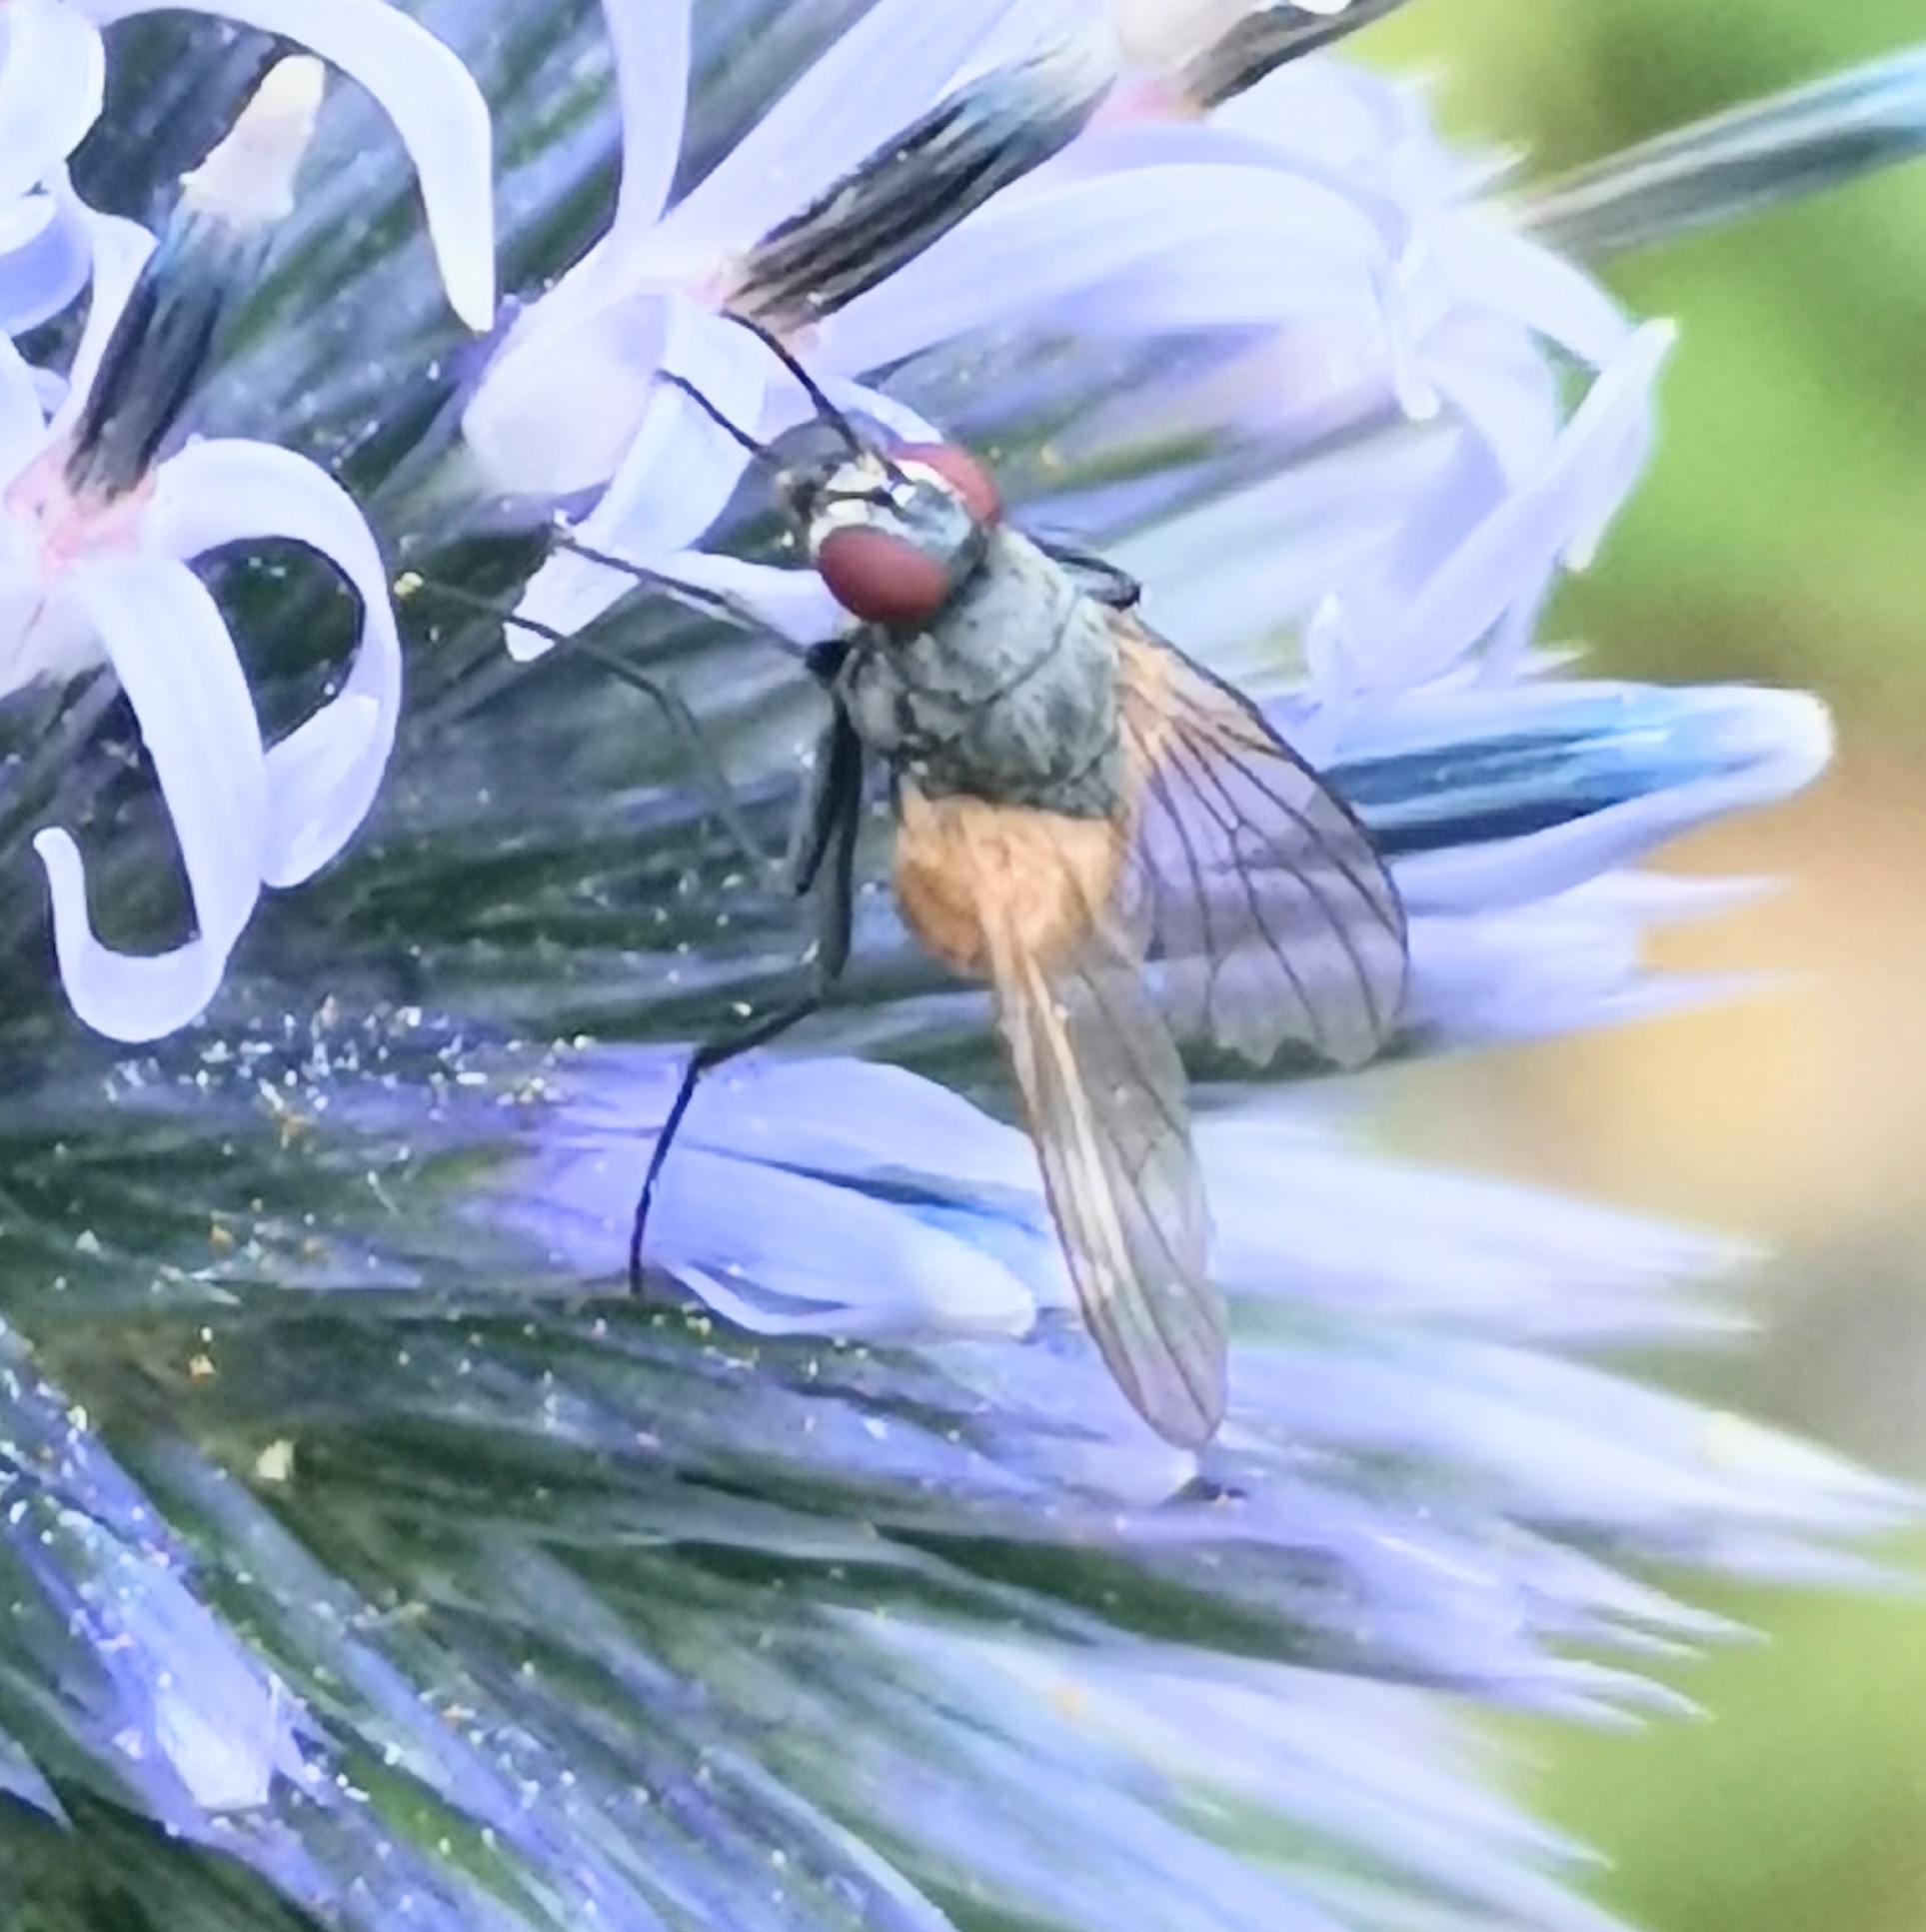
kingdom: Animalia
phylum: Arthropoda
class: Insecta
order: Diptera
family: Muscidae
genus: Thricops
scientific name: Thricops semicinereus
